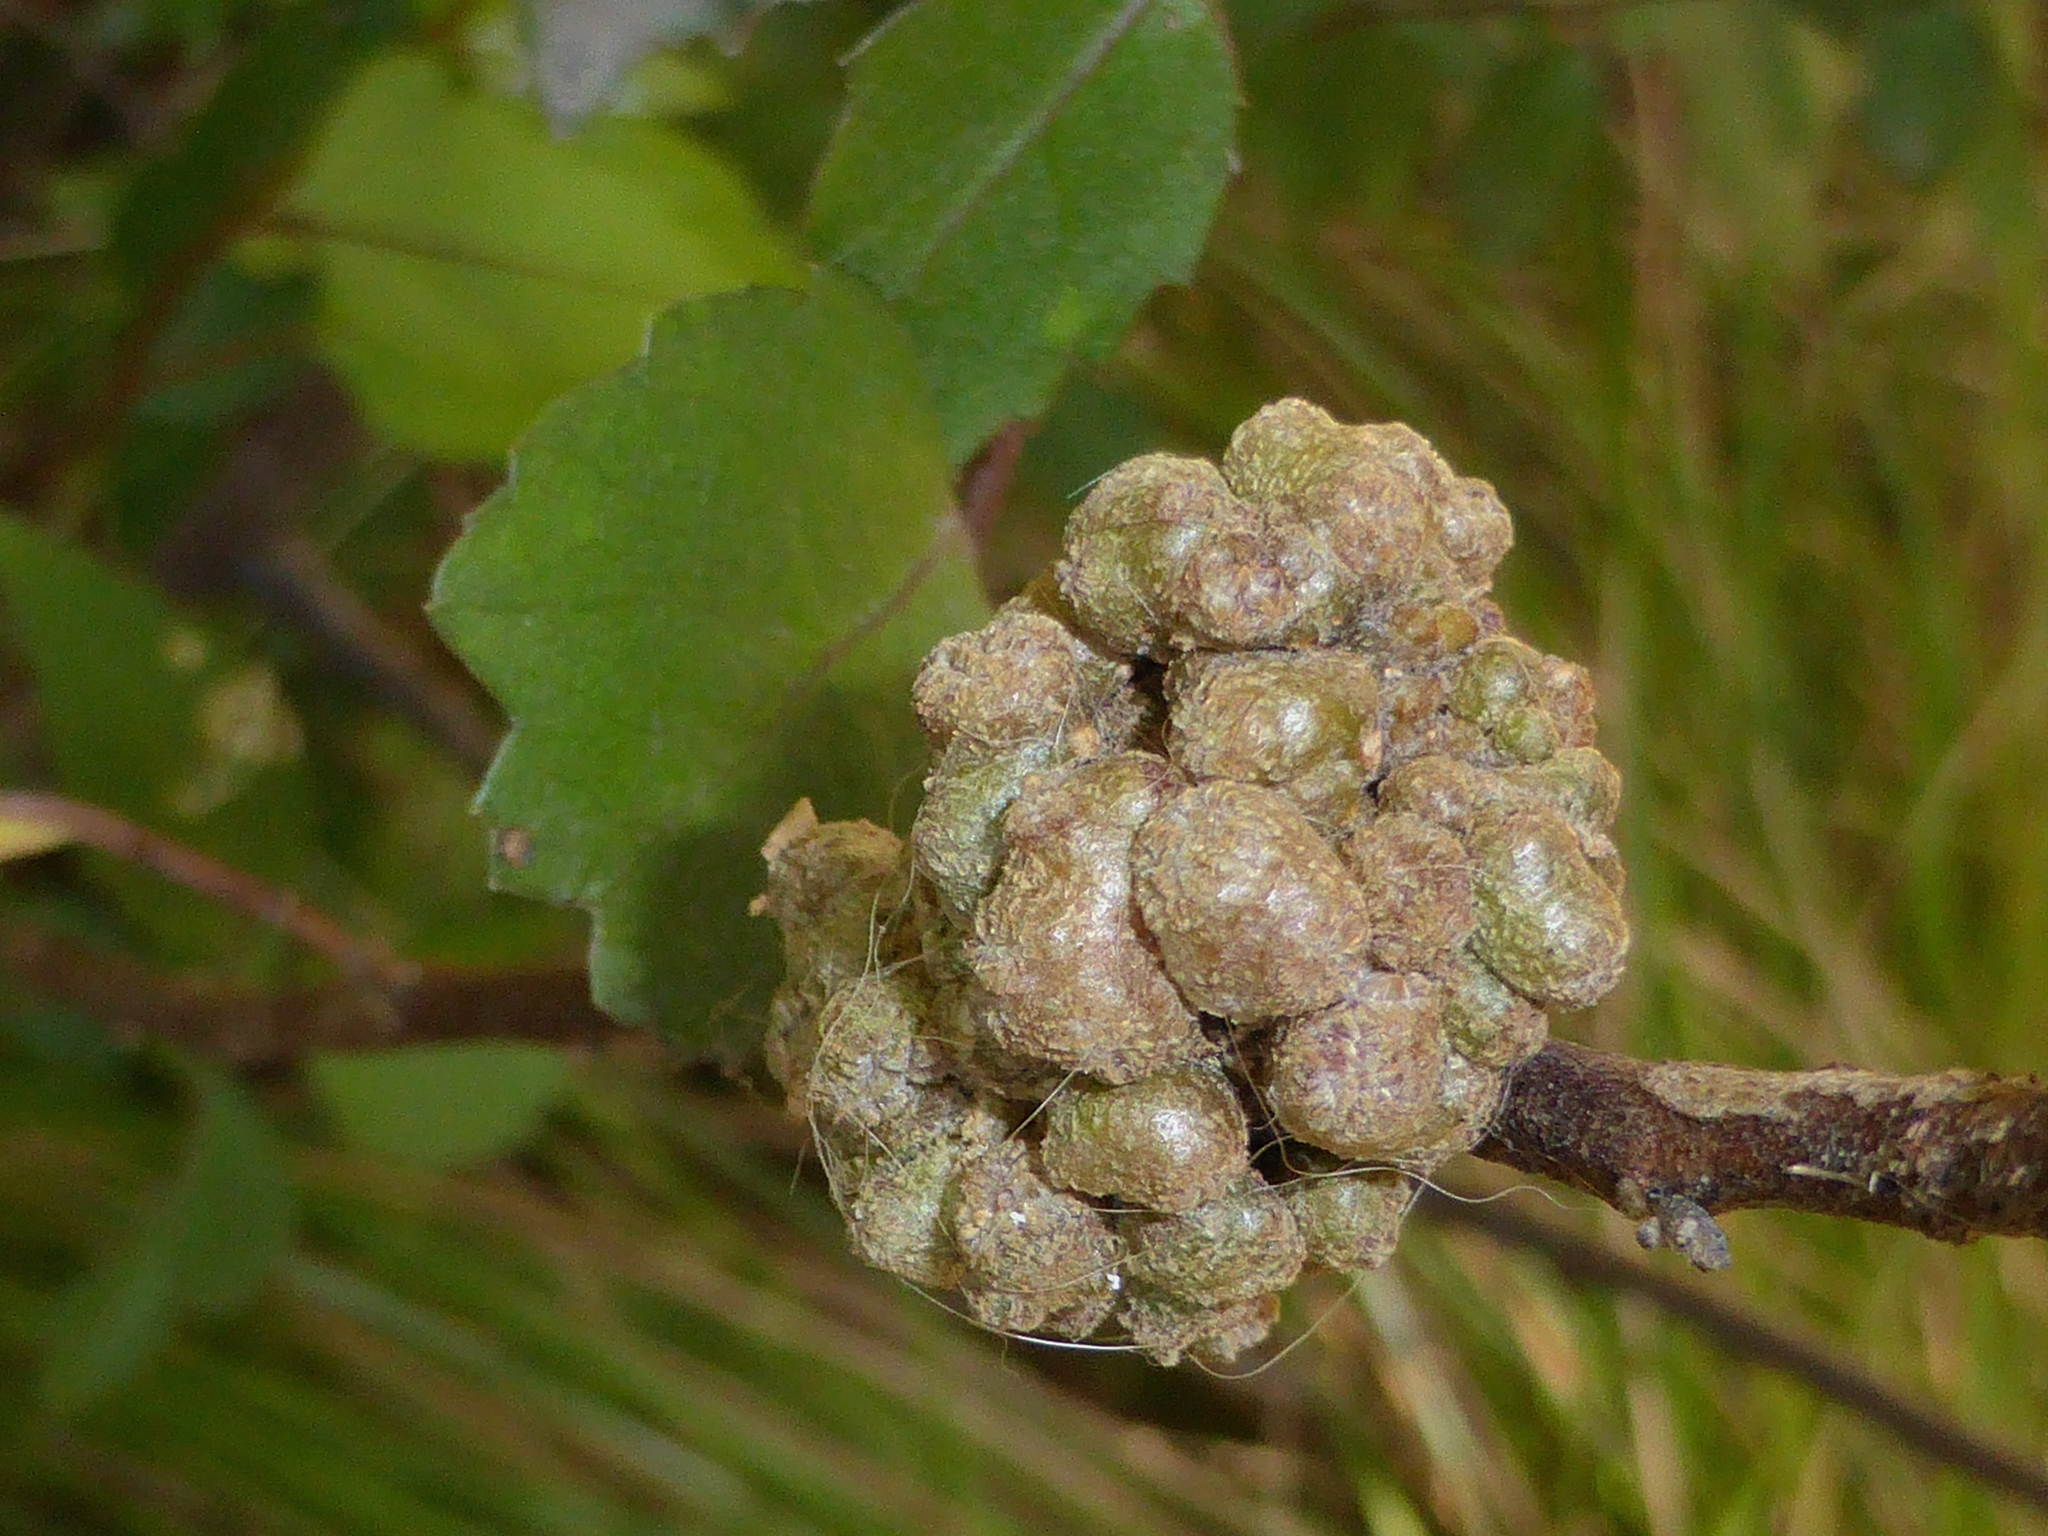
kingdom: Animalia
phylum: Arthropoda
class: Arachnida
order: Trombidiformes
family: Eriophyidae
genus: Eriophyes
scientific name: Eriophyes hoheriae
